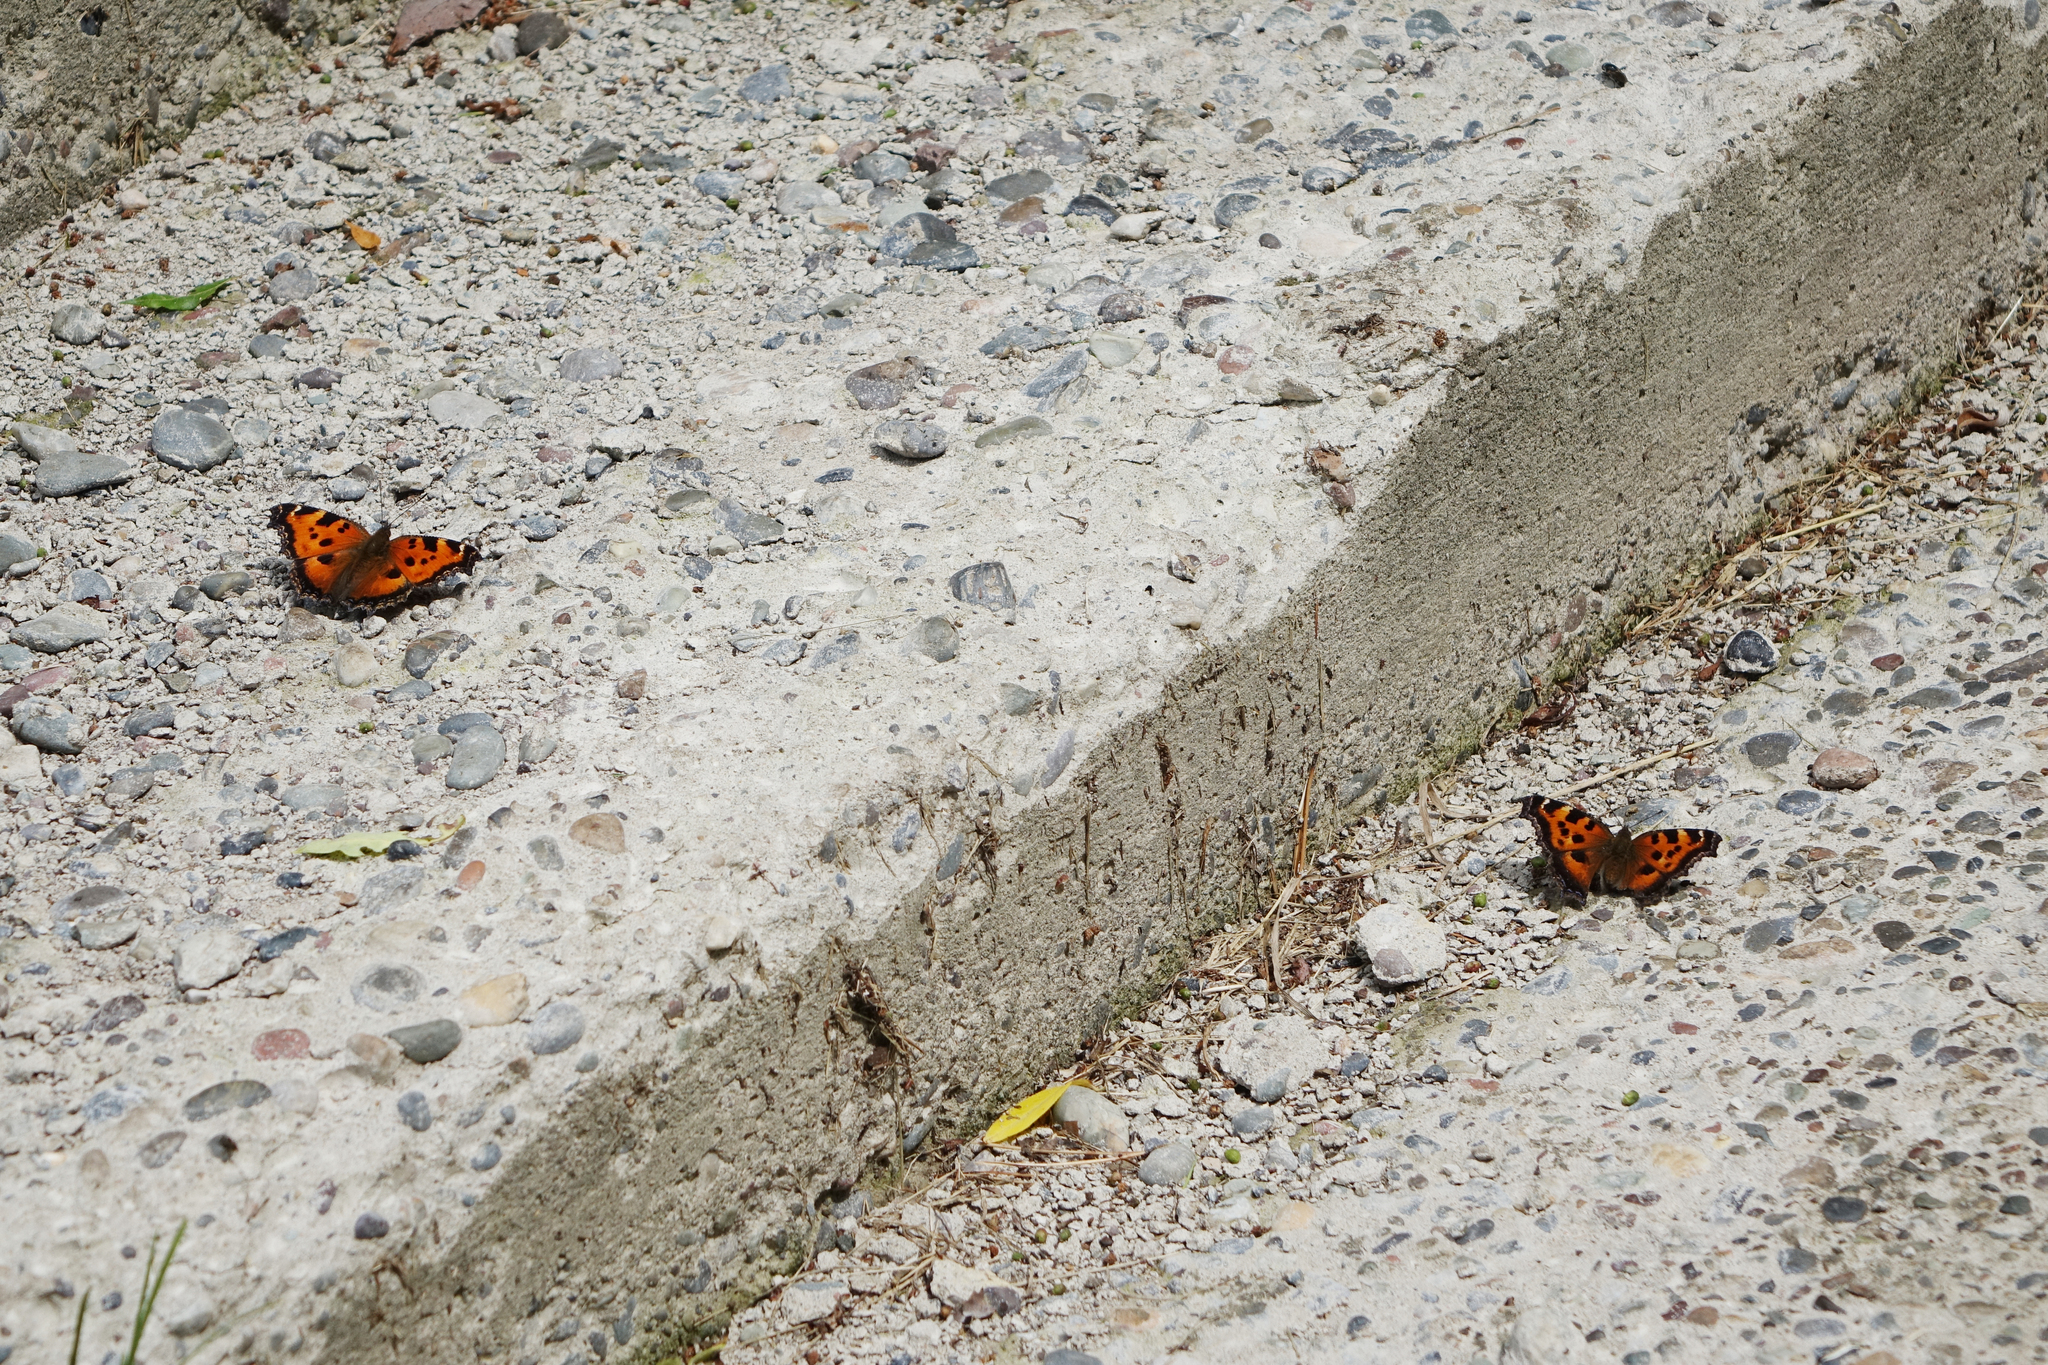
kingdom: Animalia
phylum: Arthropoda
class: Insecta
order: Lepidoptera
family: Nymphalidae
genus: Nymphalis
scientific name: Nymphalis xanthomelas
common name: Scarce tortoiseshell
